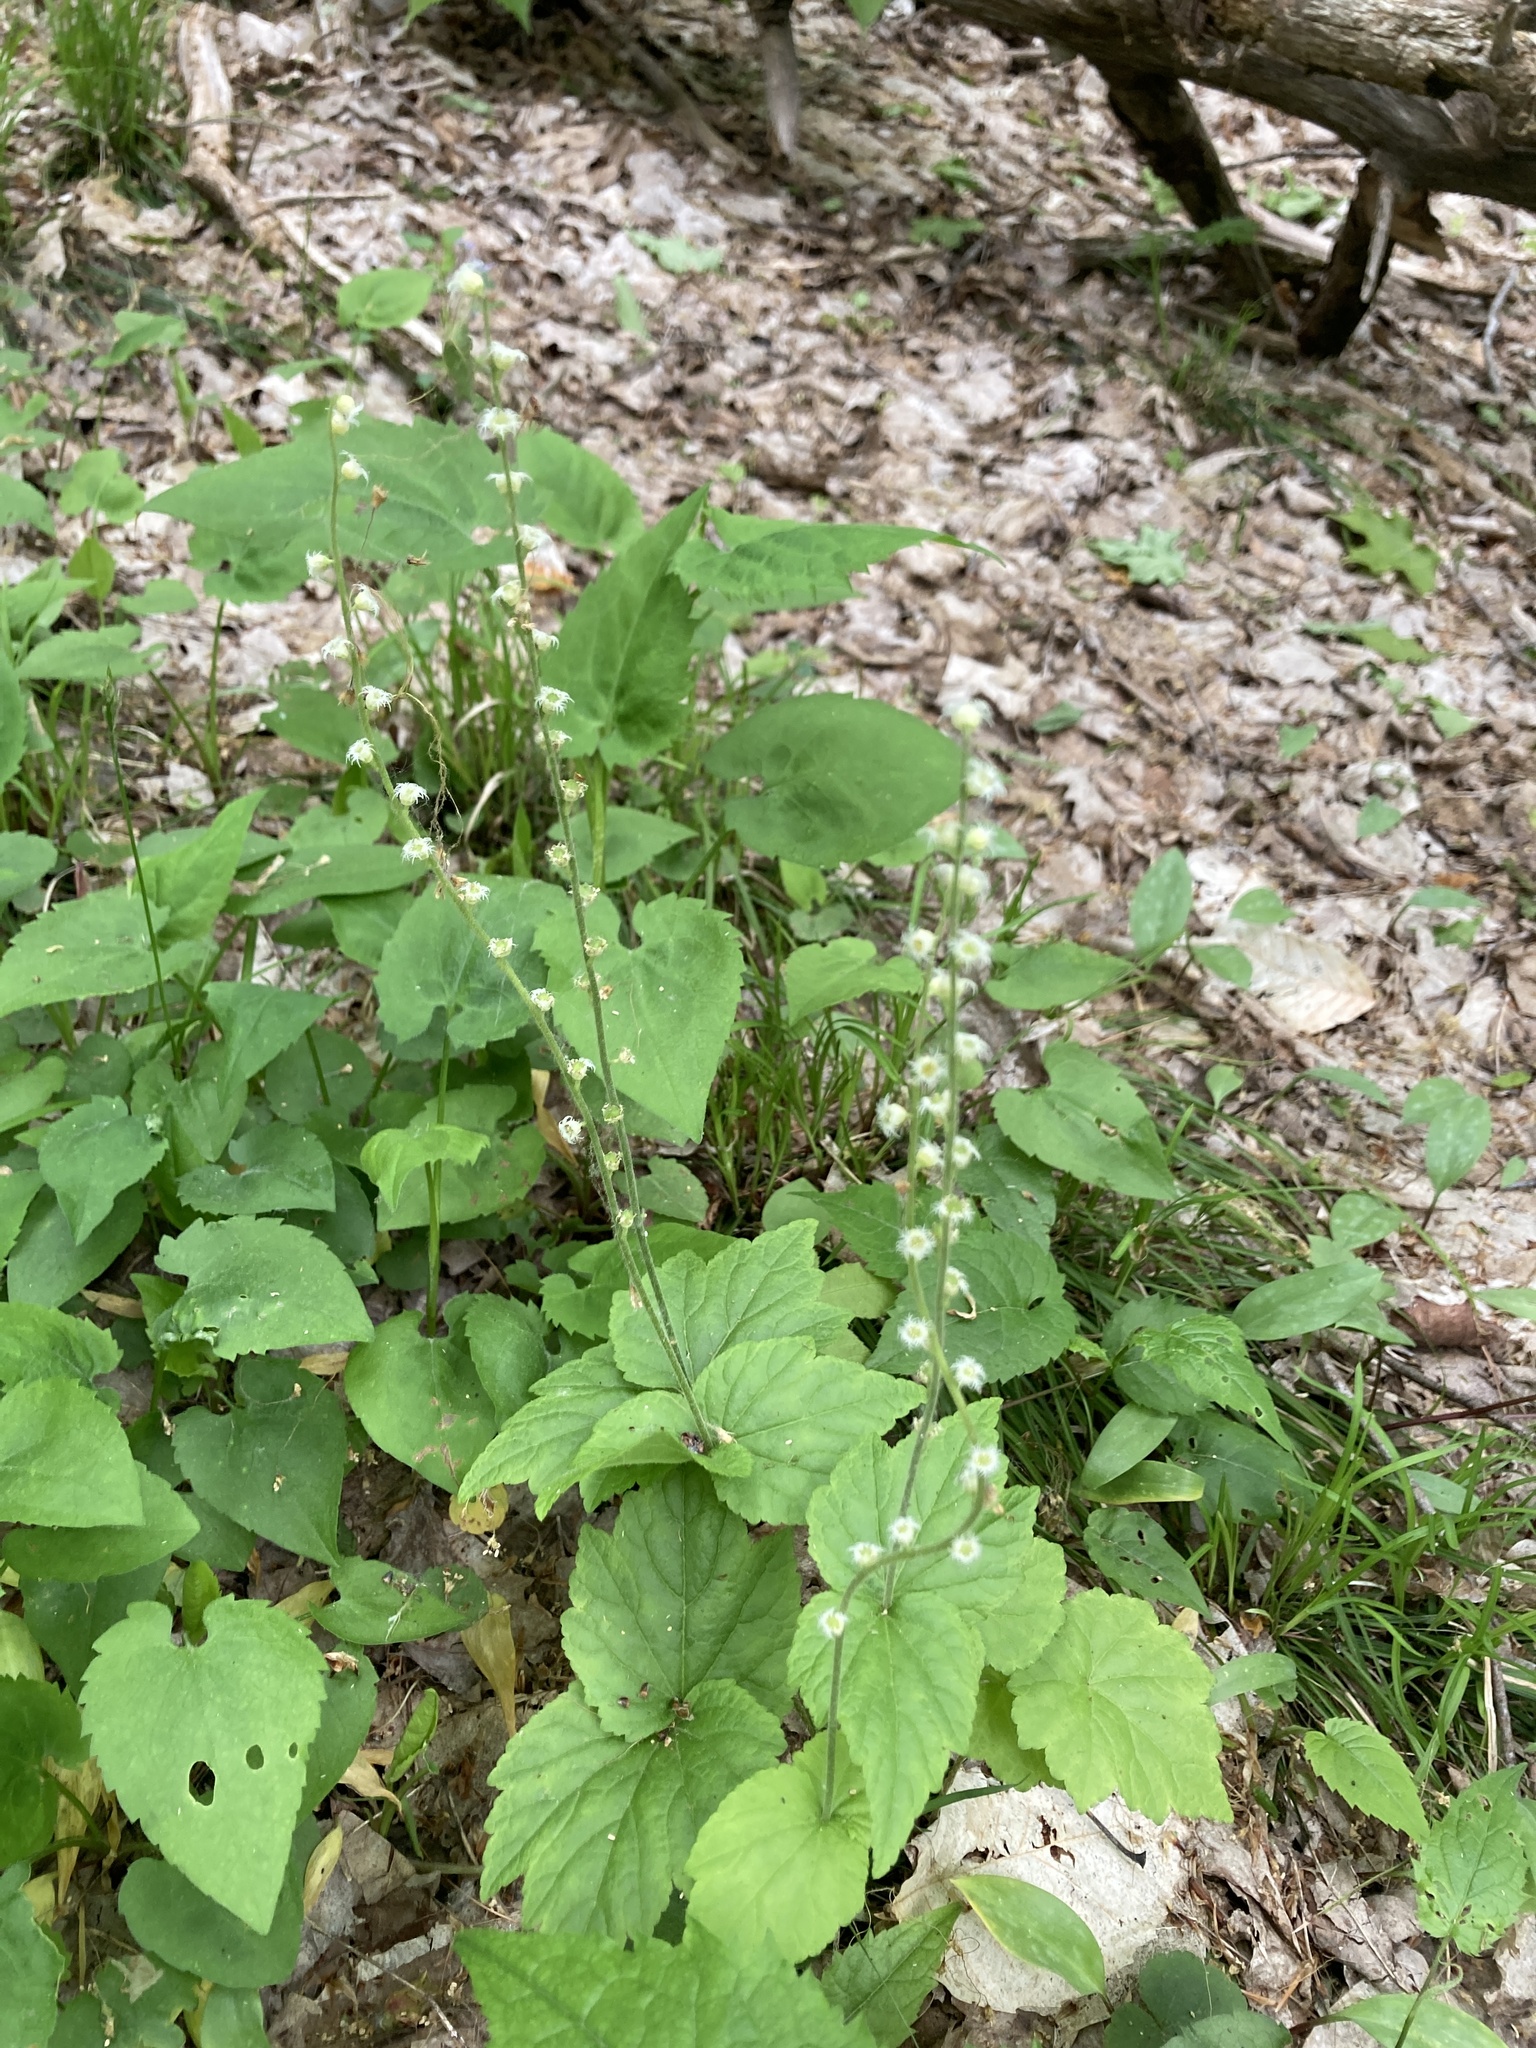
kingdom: Plantae
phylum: Tracheophyta
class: Magnoliopsida
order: Saxifragales
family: Saxifragaceae
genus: Mitella
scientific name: Mitella diphylla
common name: Coolwort
